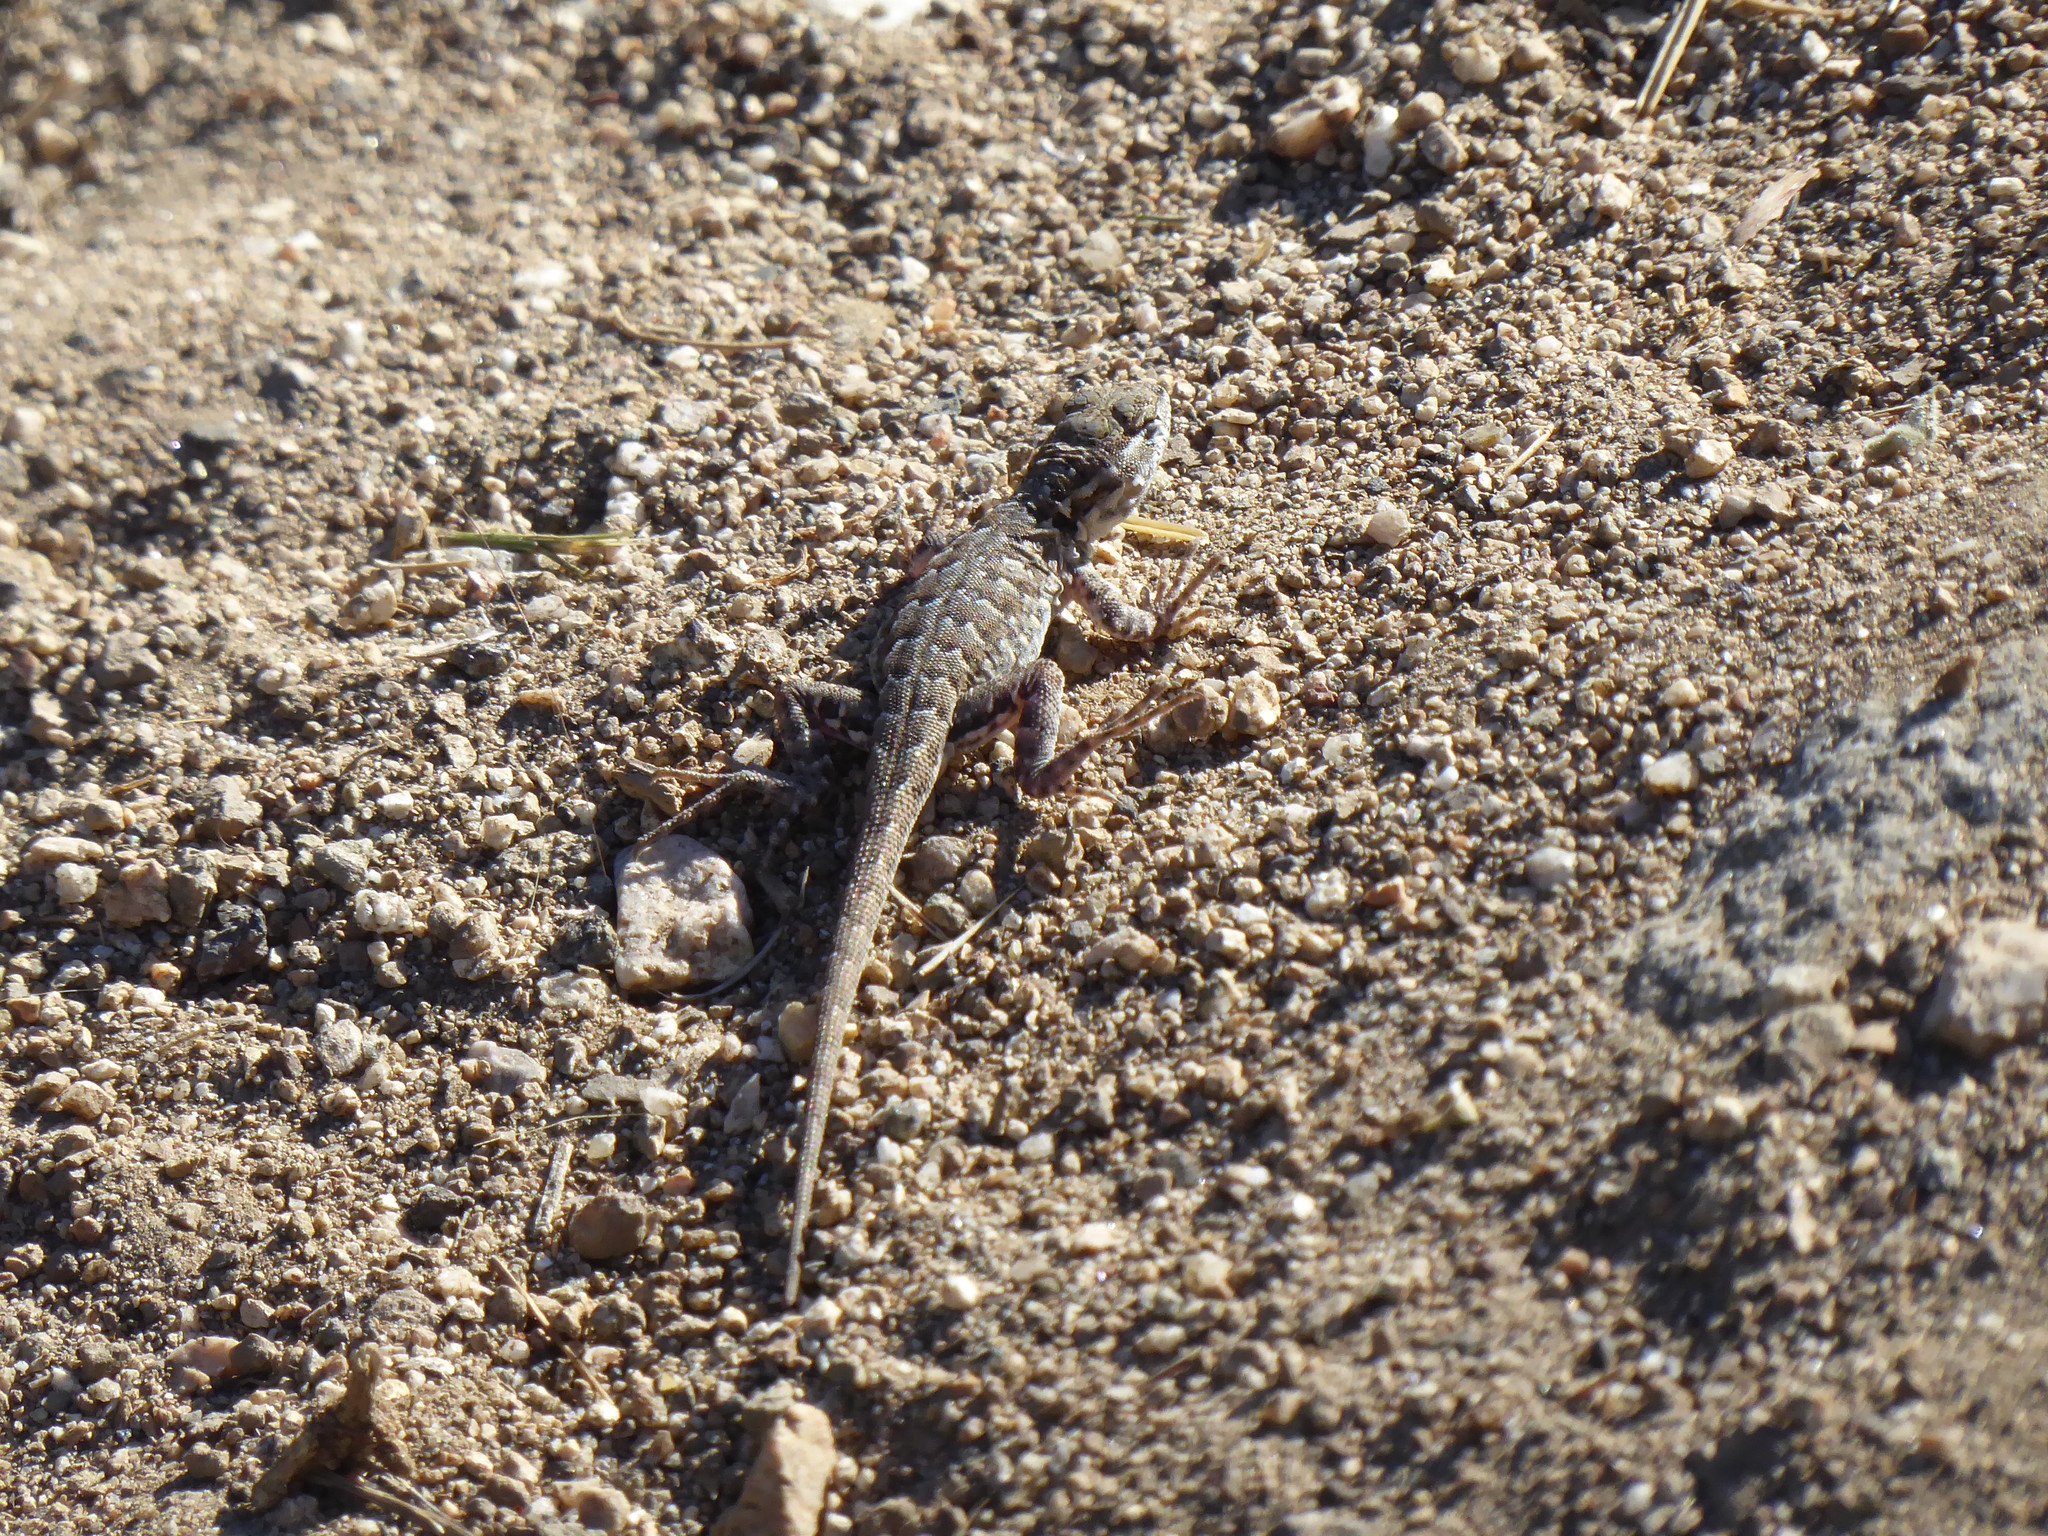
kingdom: Animalia
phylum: Chordata
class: Squamata
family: Phrynosomatidae
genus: Uta
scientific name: Uta stansburiana
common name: Side-blotched lizard
